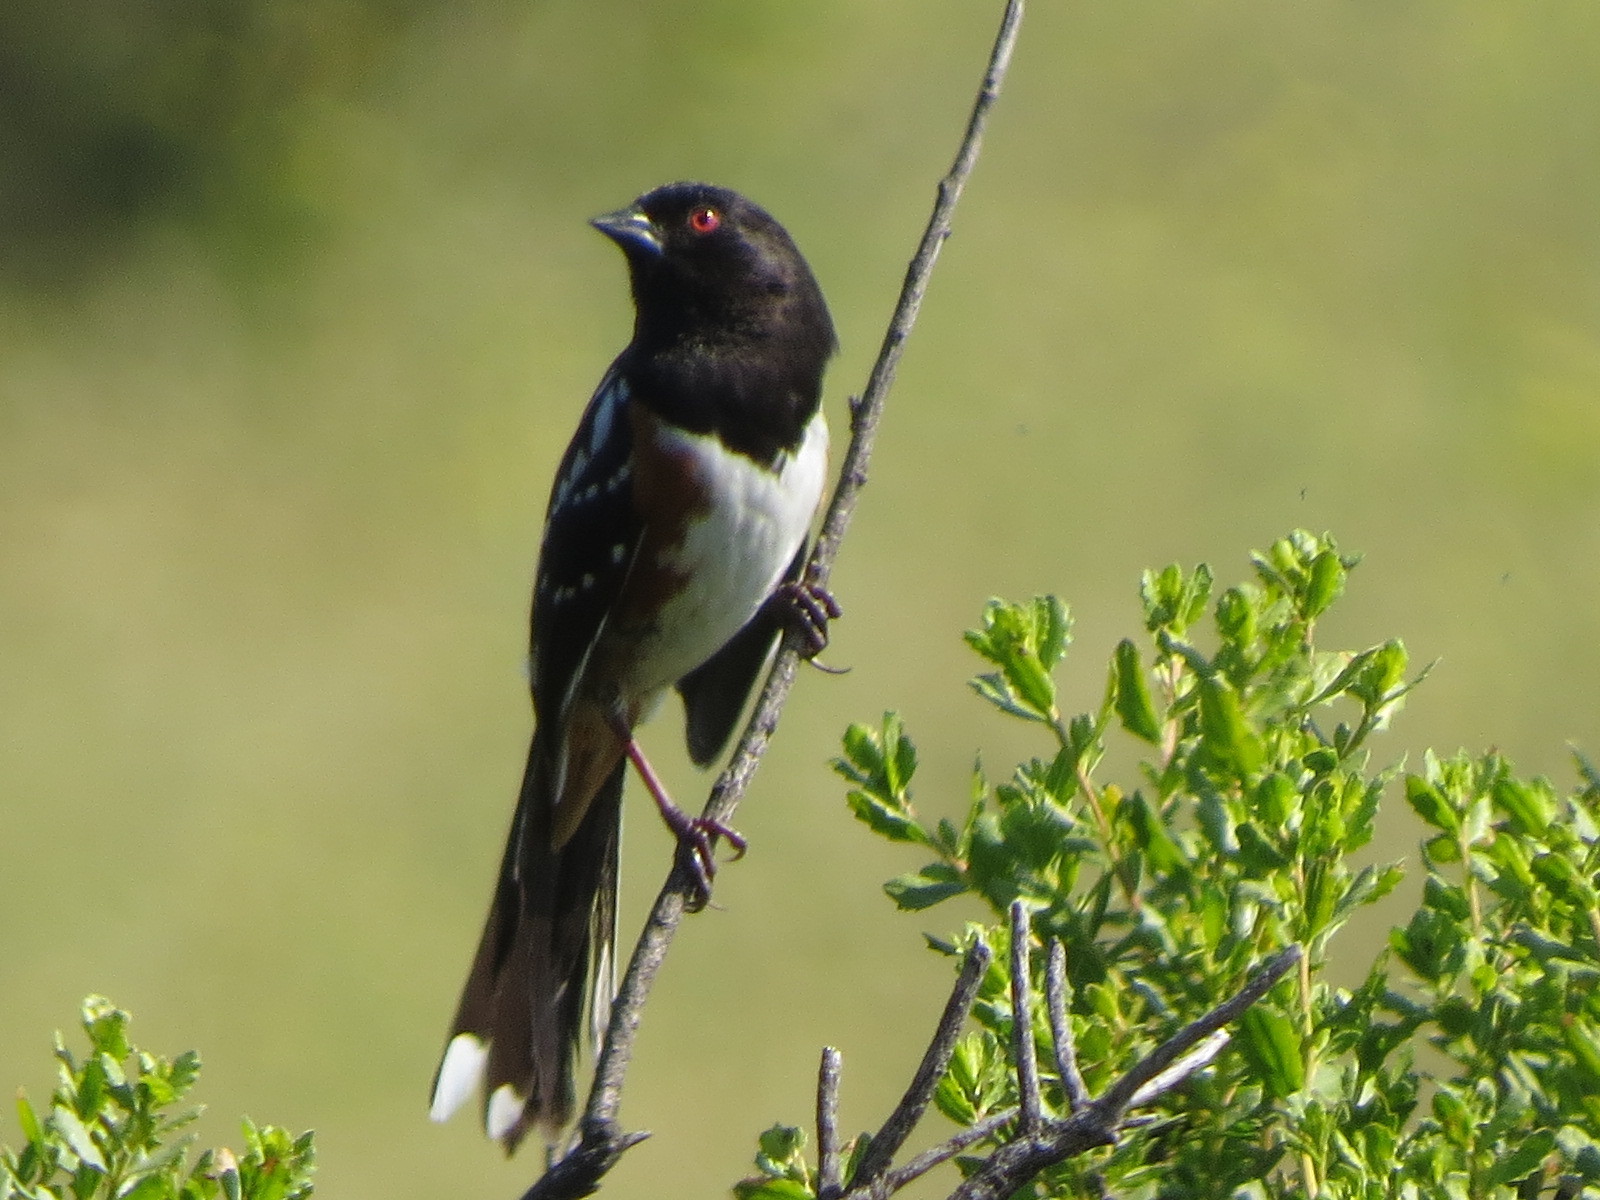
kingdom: Animalia
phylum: Chordata
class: Aves
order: Passeriformes
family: Passerellidae
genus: Pipilo
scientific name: Pipilo maculatus
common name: Spotted towhee
